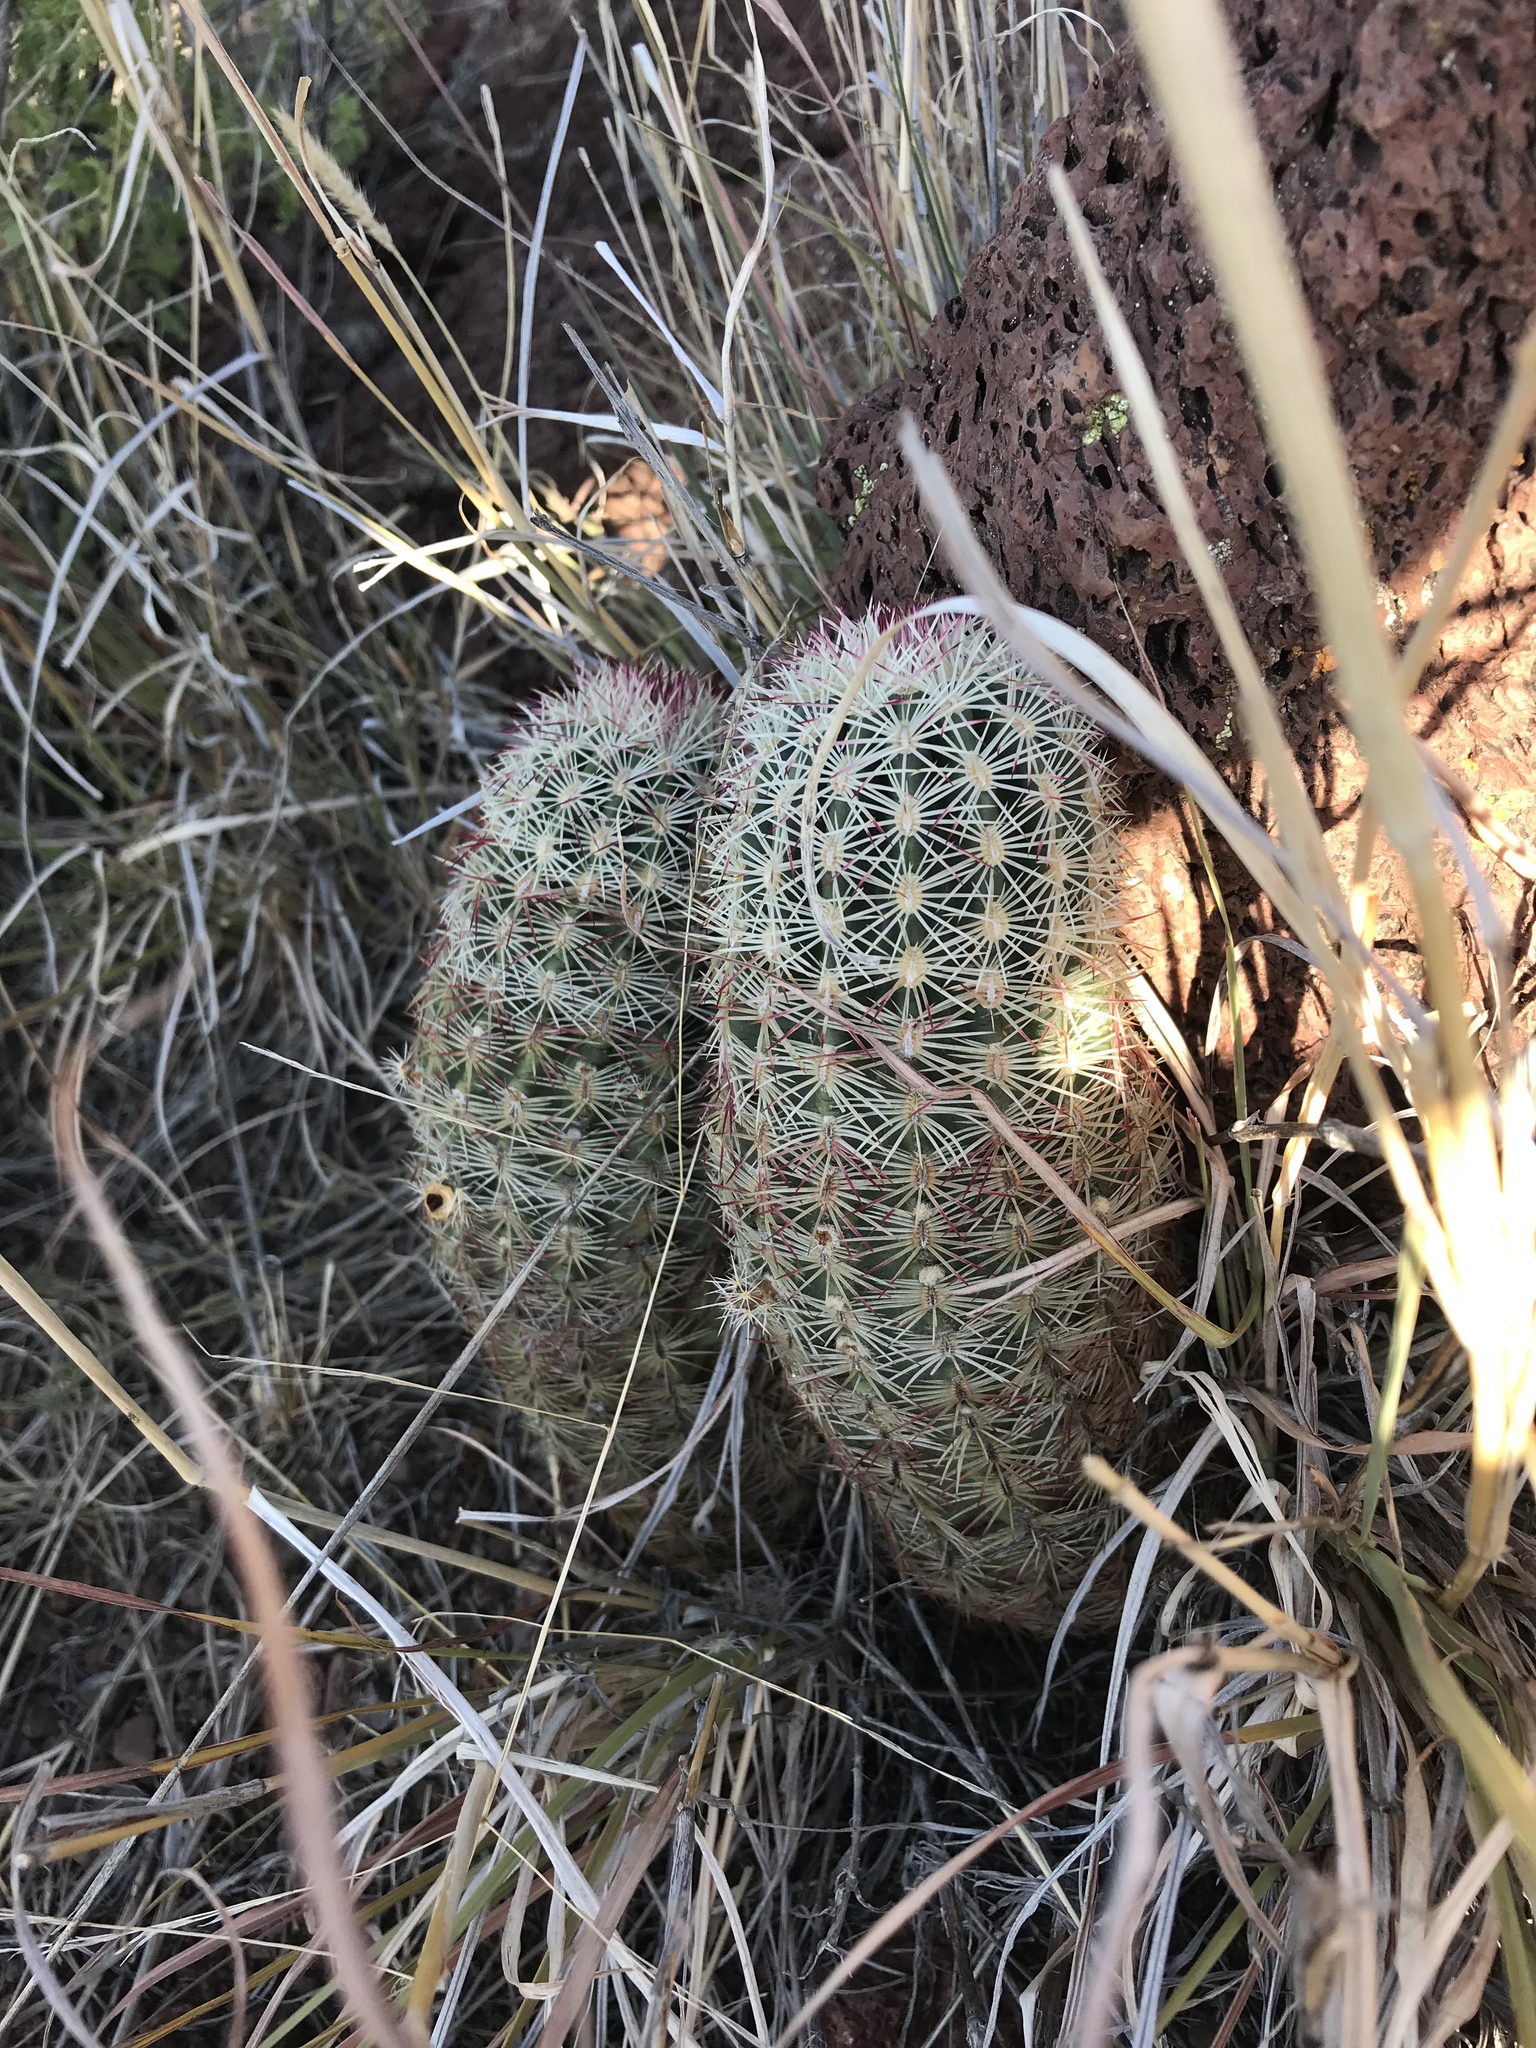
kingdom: Plantae
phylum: Tracheophyta
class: Magnoliopsida
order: Caryophyllales
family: Cactaceae
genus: Echinocereus
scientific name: Echinocereus viridiflorus
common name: Nylon hedgehog cactus
